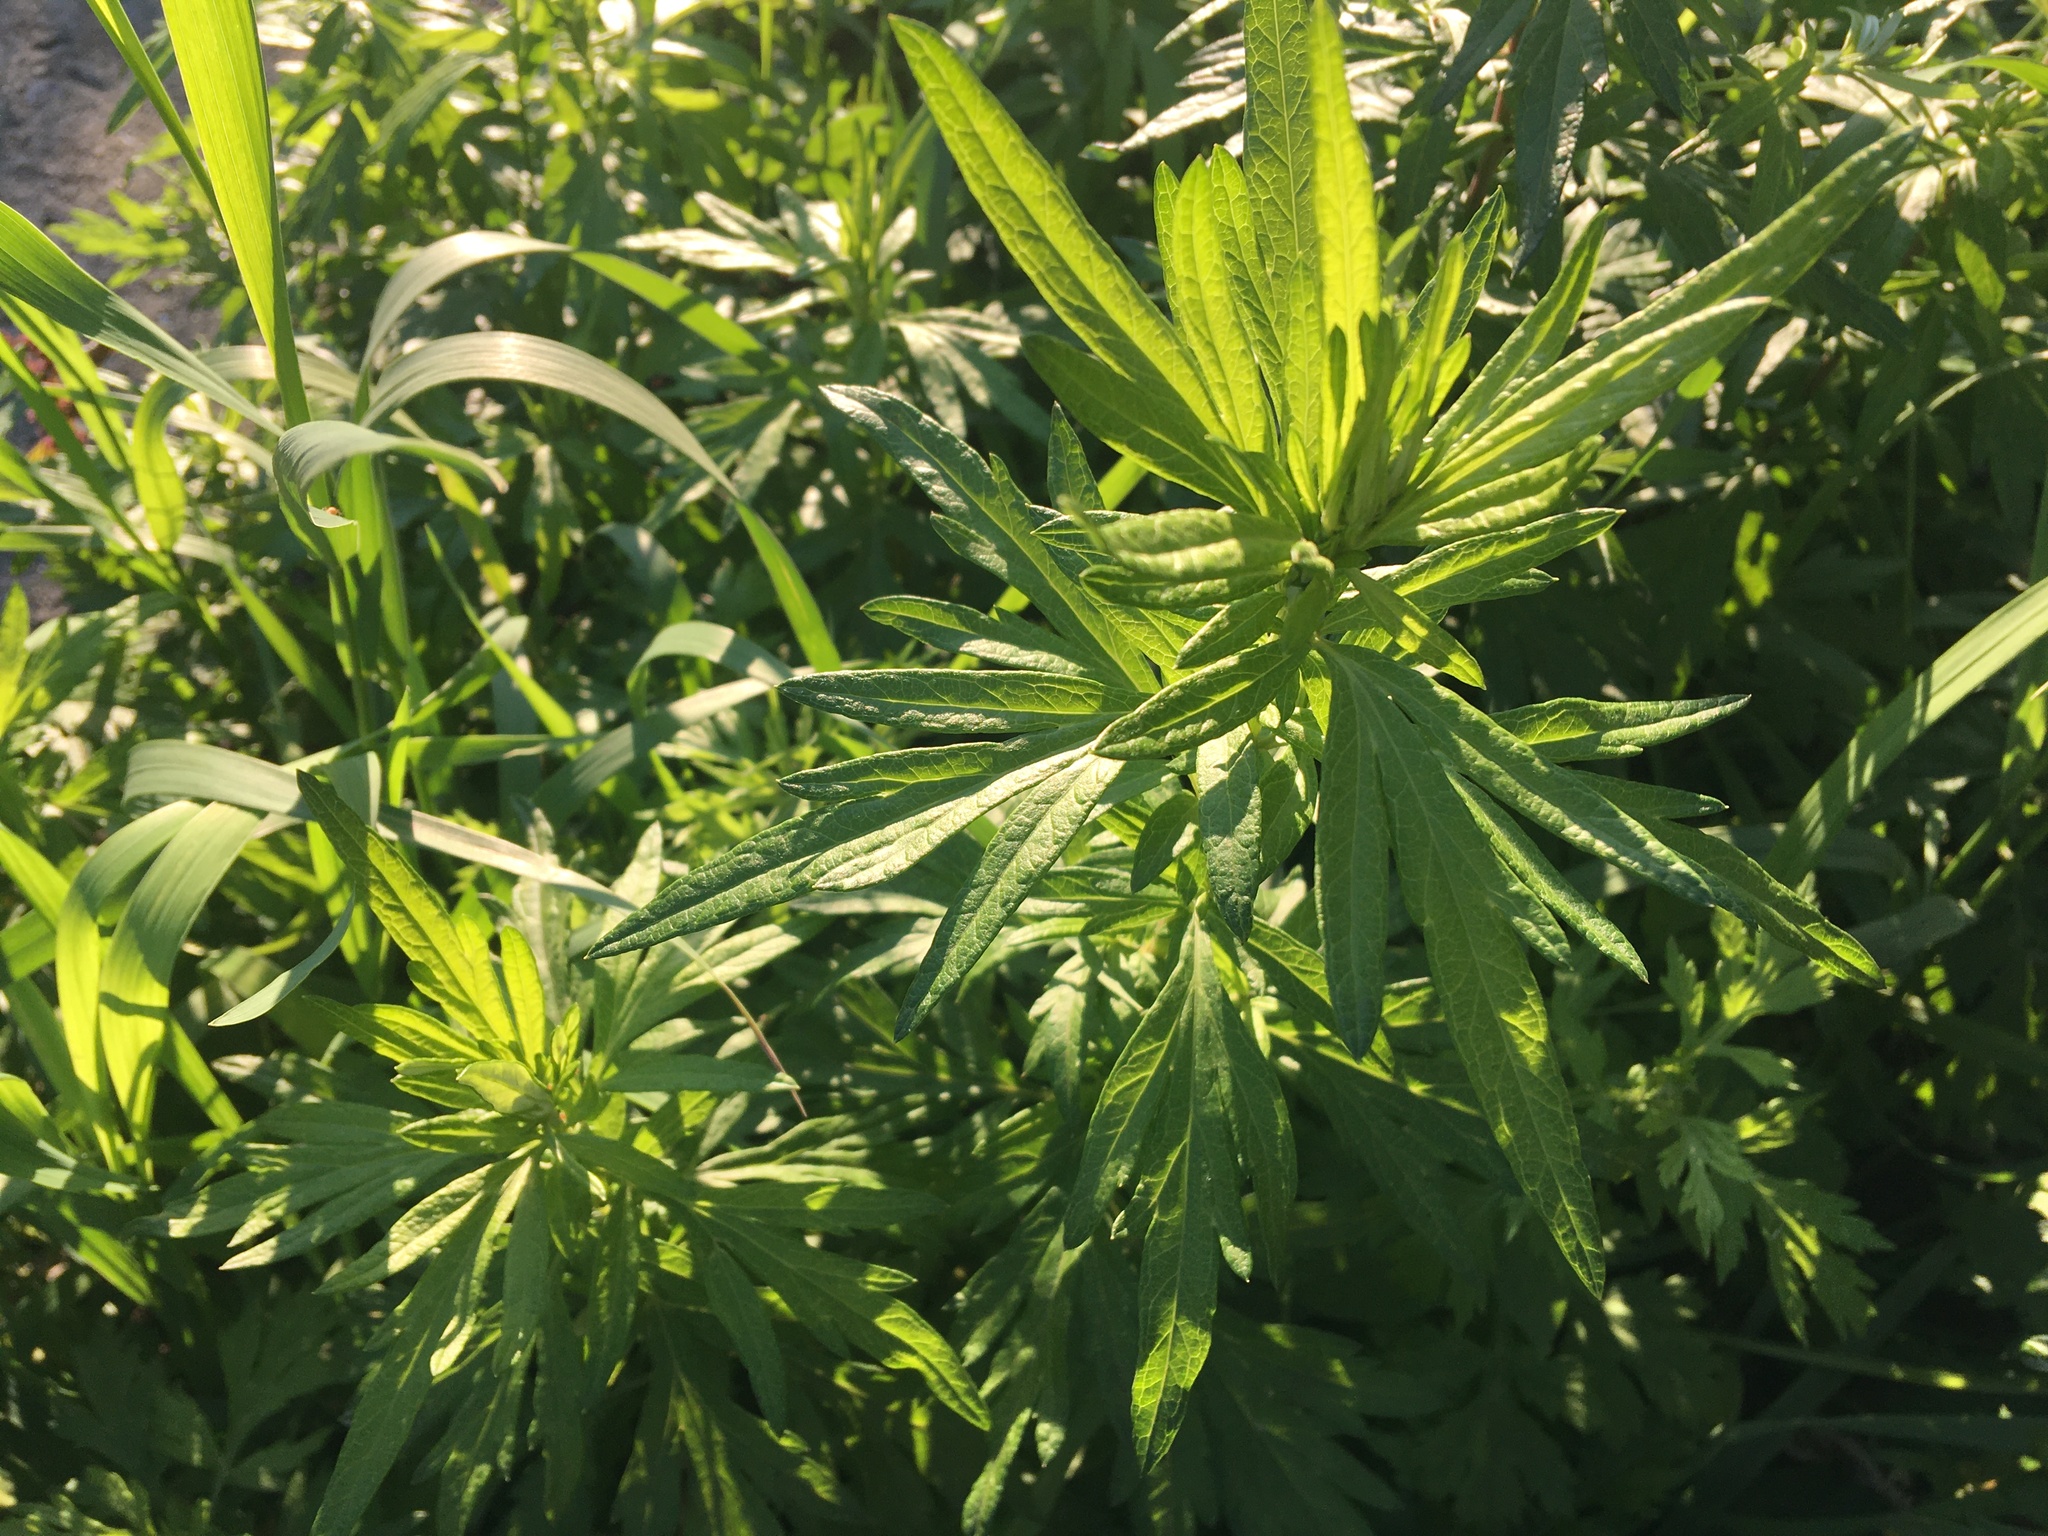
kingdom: Plantae
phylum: Tracheophyta
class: Magnoliopsida
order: Asterales
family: Asteraceae
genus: Artemisia
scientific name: Artemisia vulgaris
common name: Mugwort
